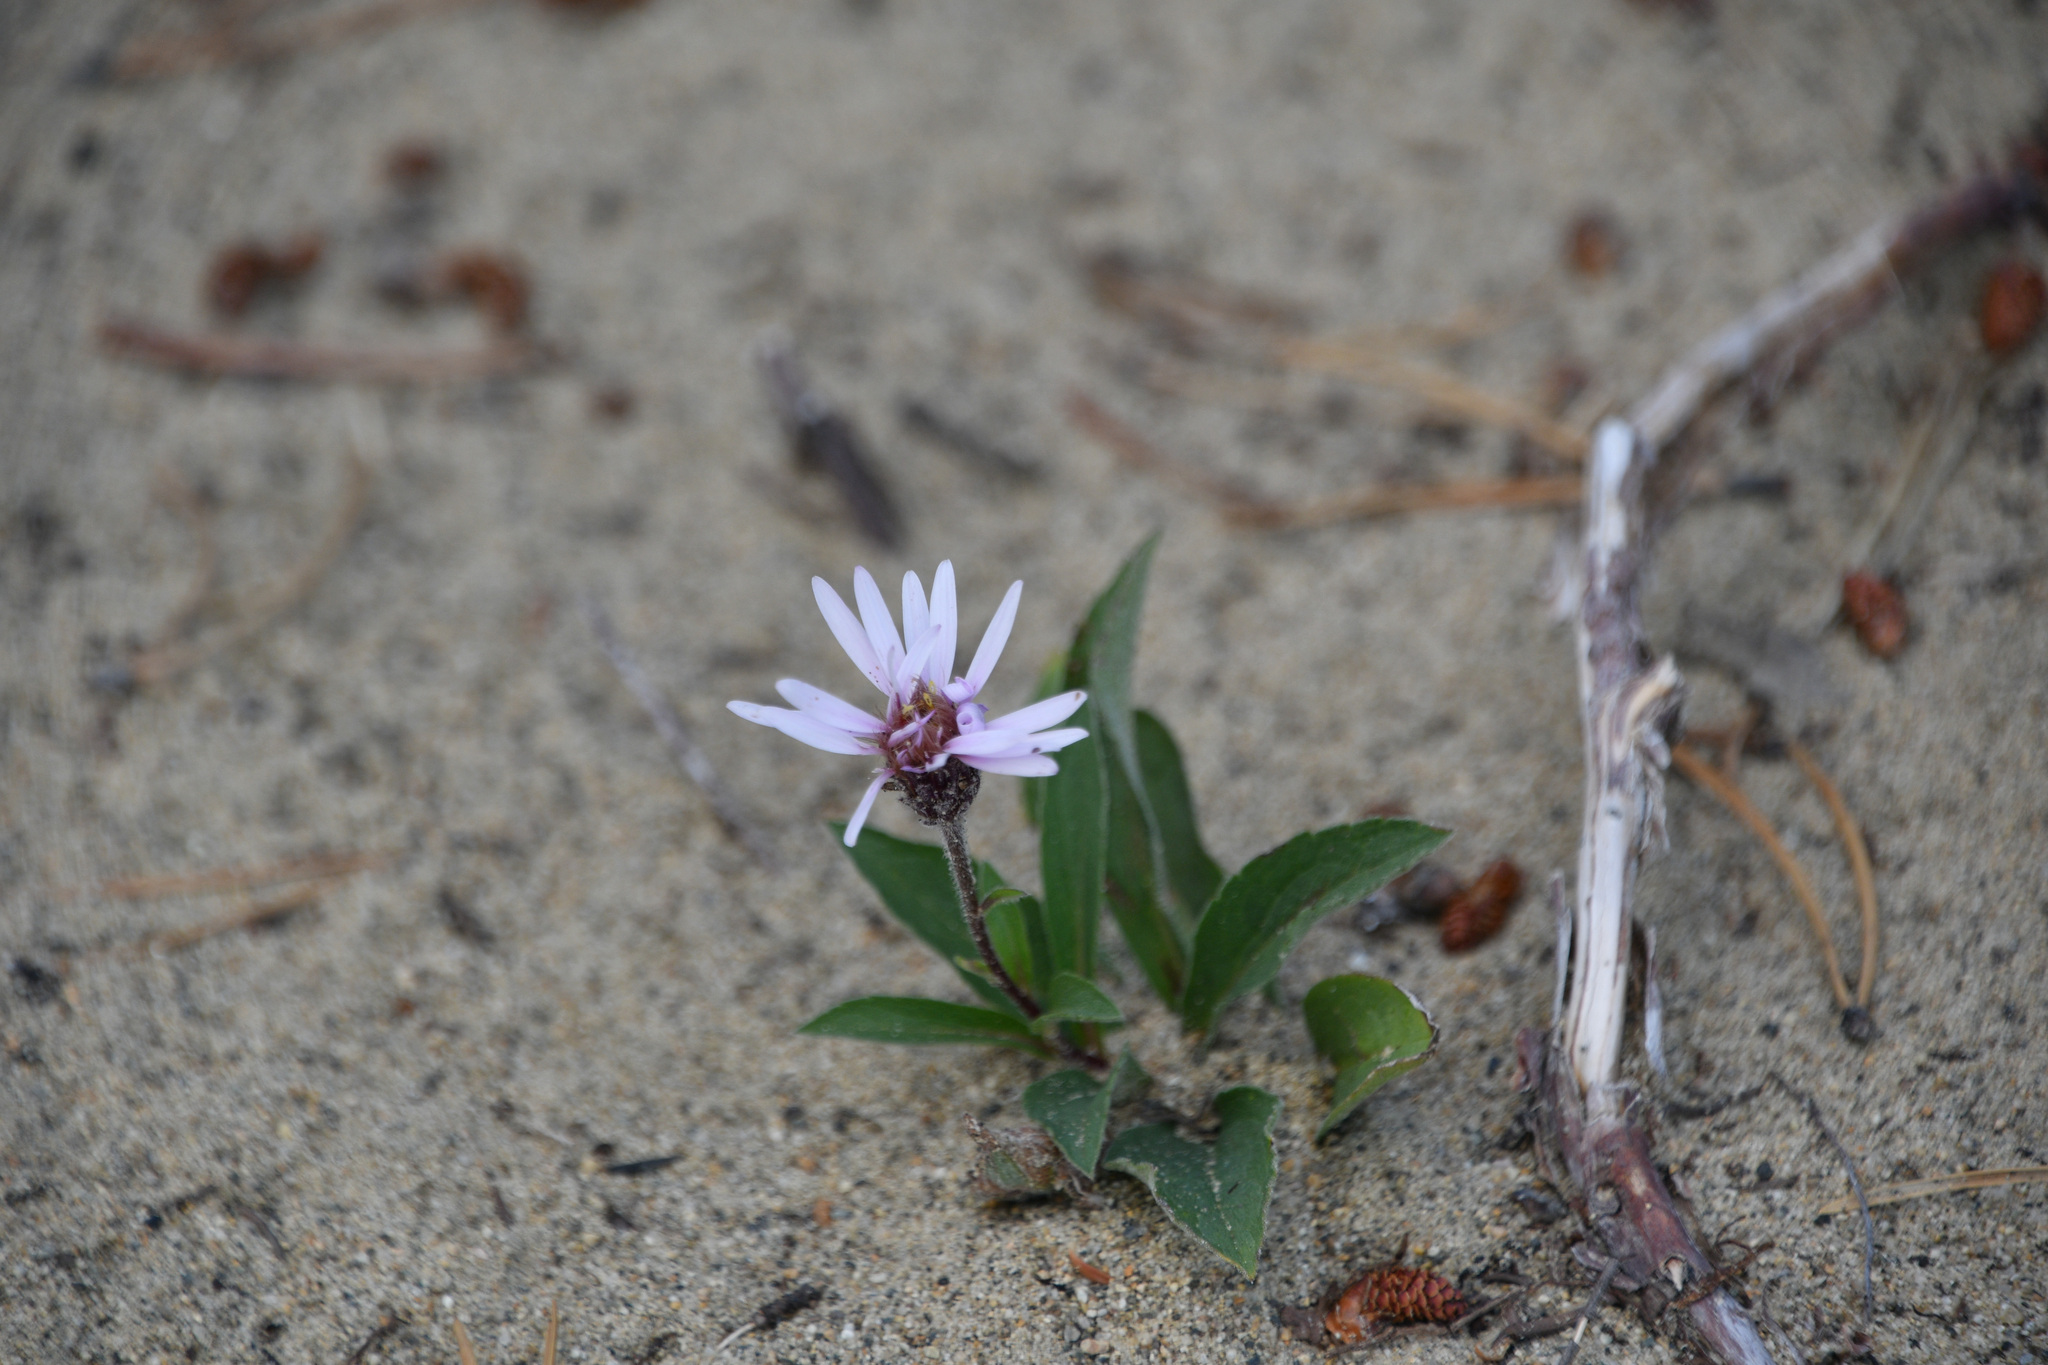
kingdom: Plantae
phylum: Tracheophyta
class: Magnoliopsida
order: Asterales
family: Asteraceae
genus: Eurybia
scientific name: Eurybia sibirica
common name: Arctic aster
